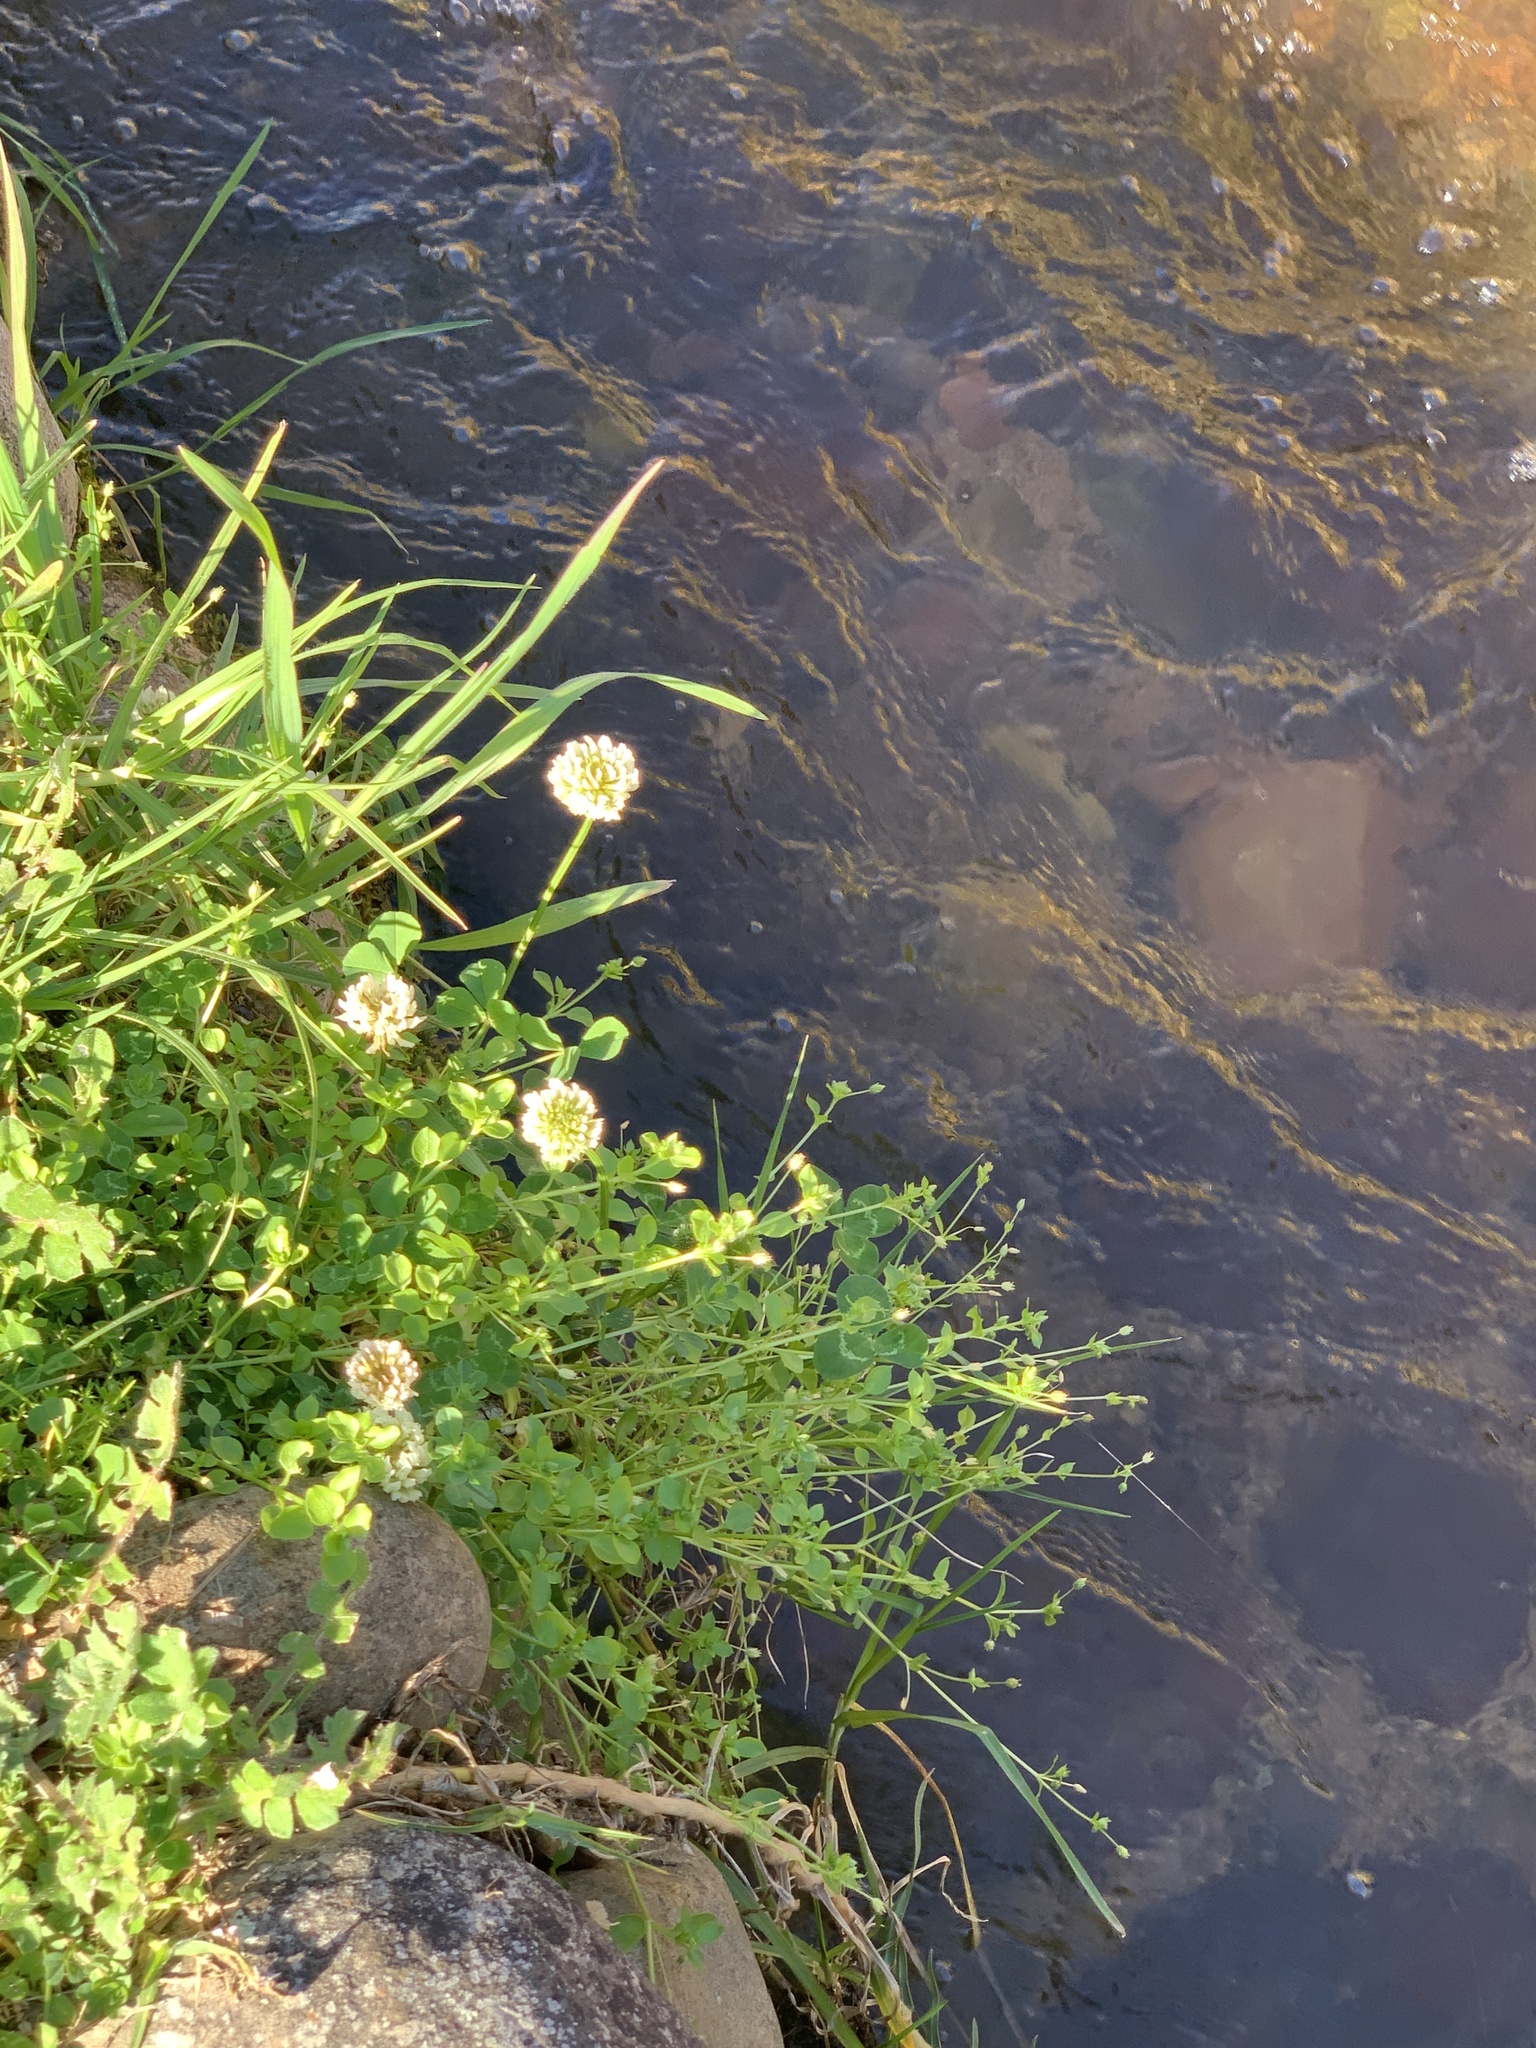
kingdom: Plantae
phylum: Tracheophyta
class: Magnoliopsida
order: Fabales
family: Fabaceae
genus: Trifolium
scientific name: Trifolium repens
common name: White clover
